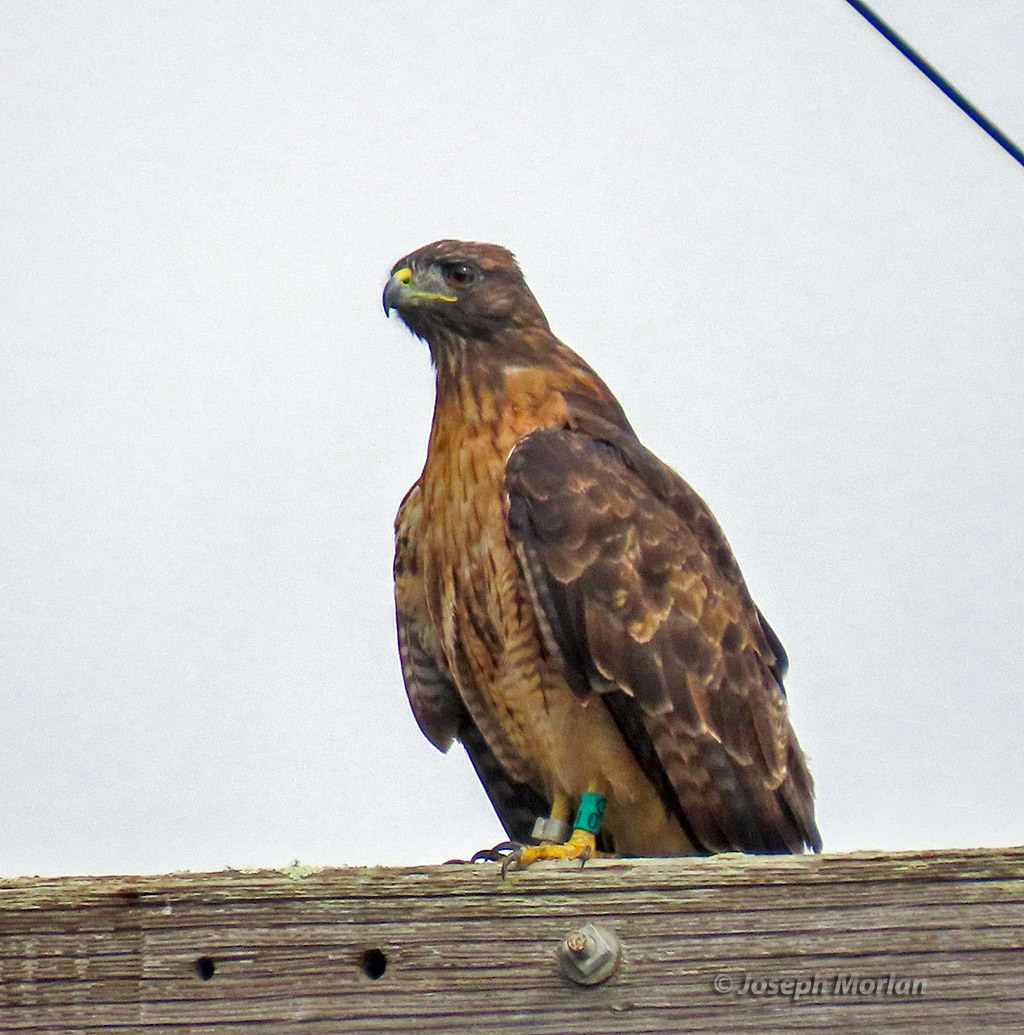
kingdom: Animalia
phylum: Chordata
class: Aves
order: Accipitriformes
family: Accipitridae
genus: Buteo
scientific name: Buteo jamaicensis
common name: Red-tailed hawk
